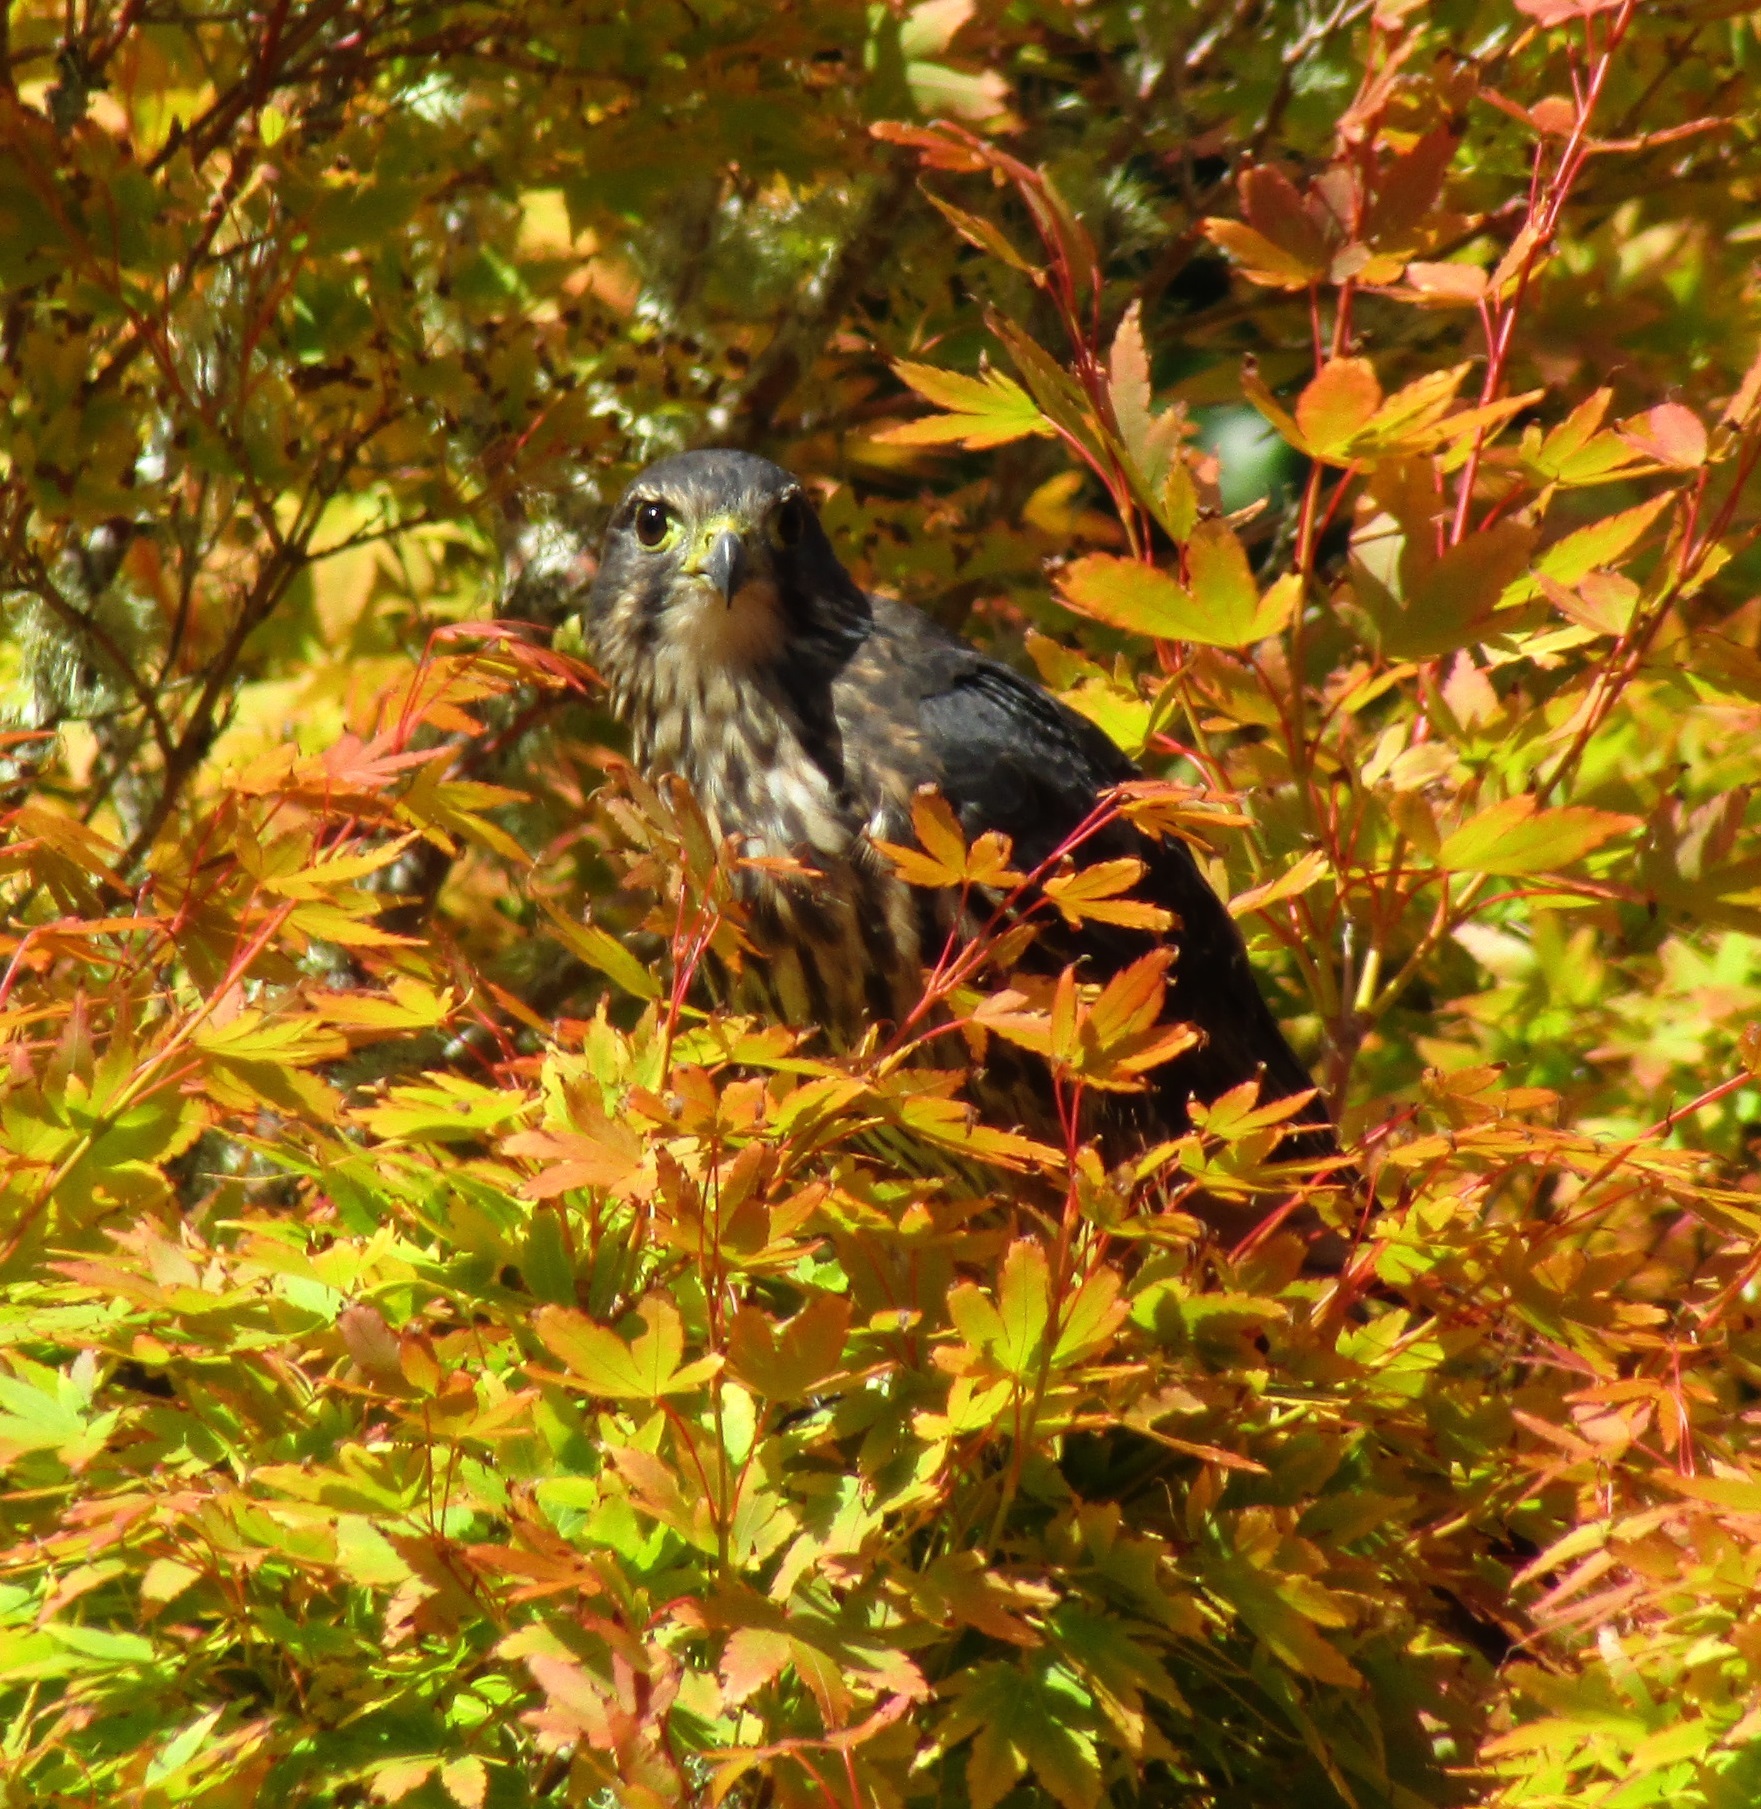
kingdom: Animalia
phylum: Chordata
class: Aves
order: Falconiformes
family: Falconidae
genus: Falco
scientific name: Falco novaeseelandiae
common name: New zealand falcon
